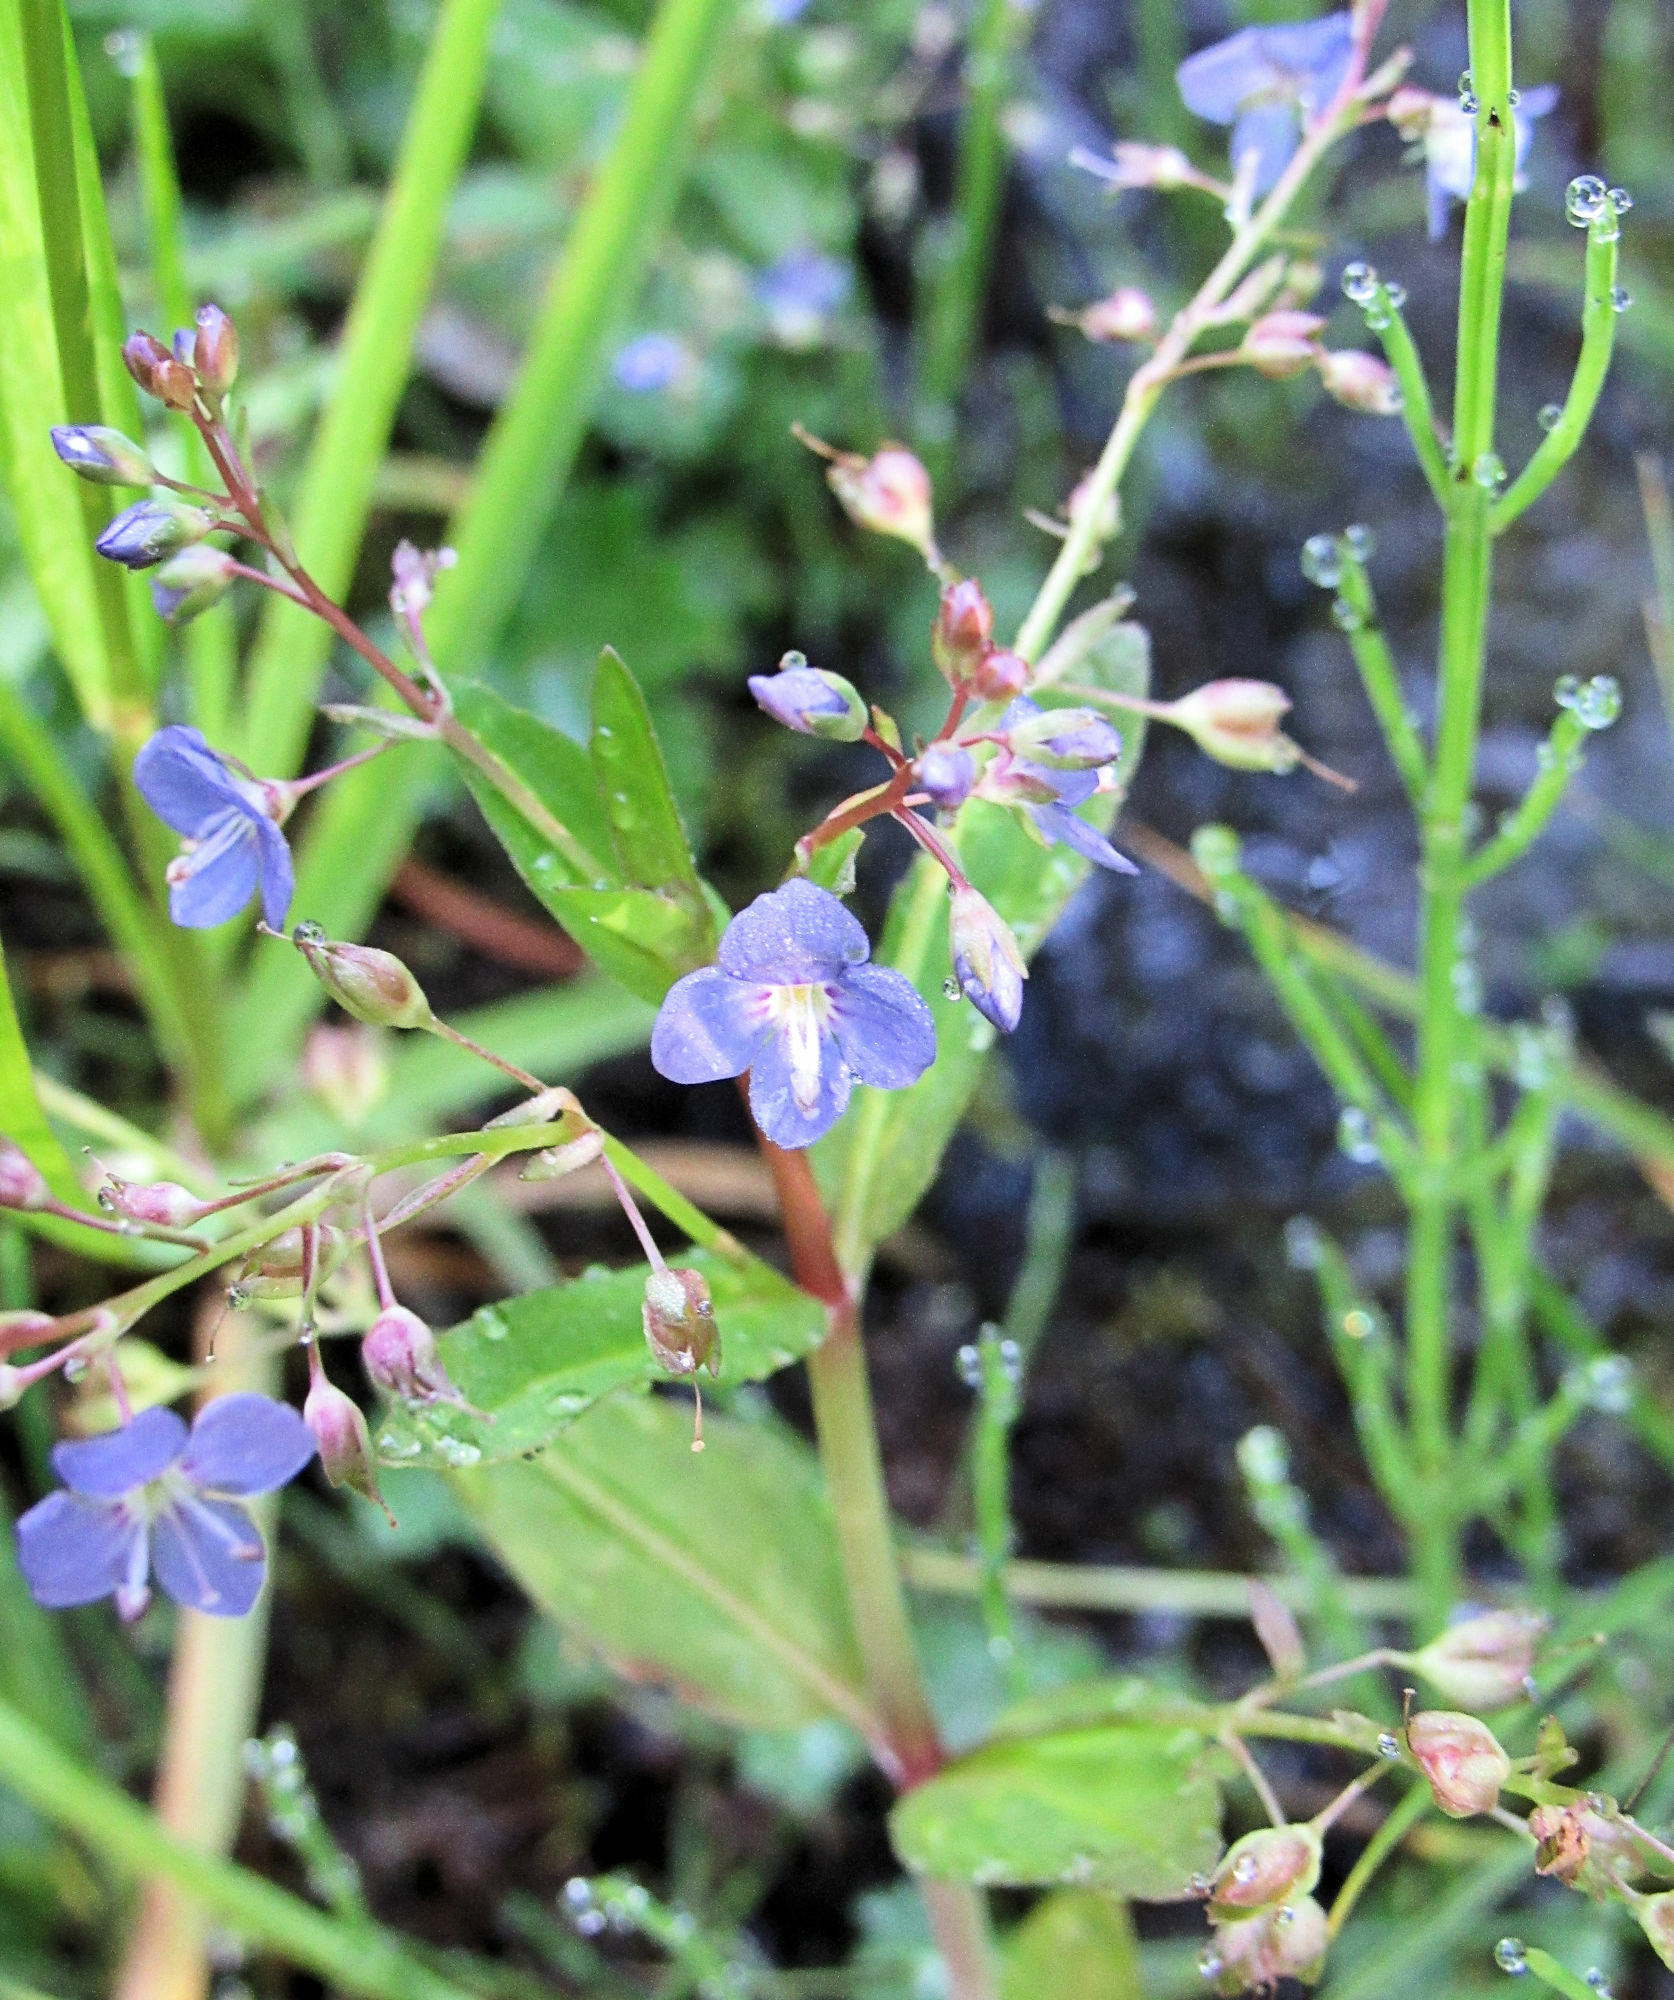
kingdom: Plantae
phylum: Tracheophyta
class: Magnoliopsida
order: Lamiales
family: Plantaginaceae
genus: Veronica
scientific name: Veronica americana
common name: American brooklime
